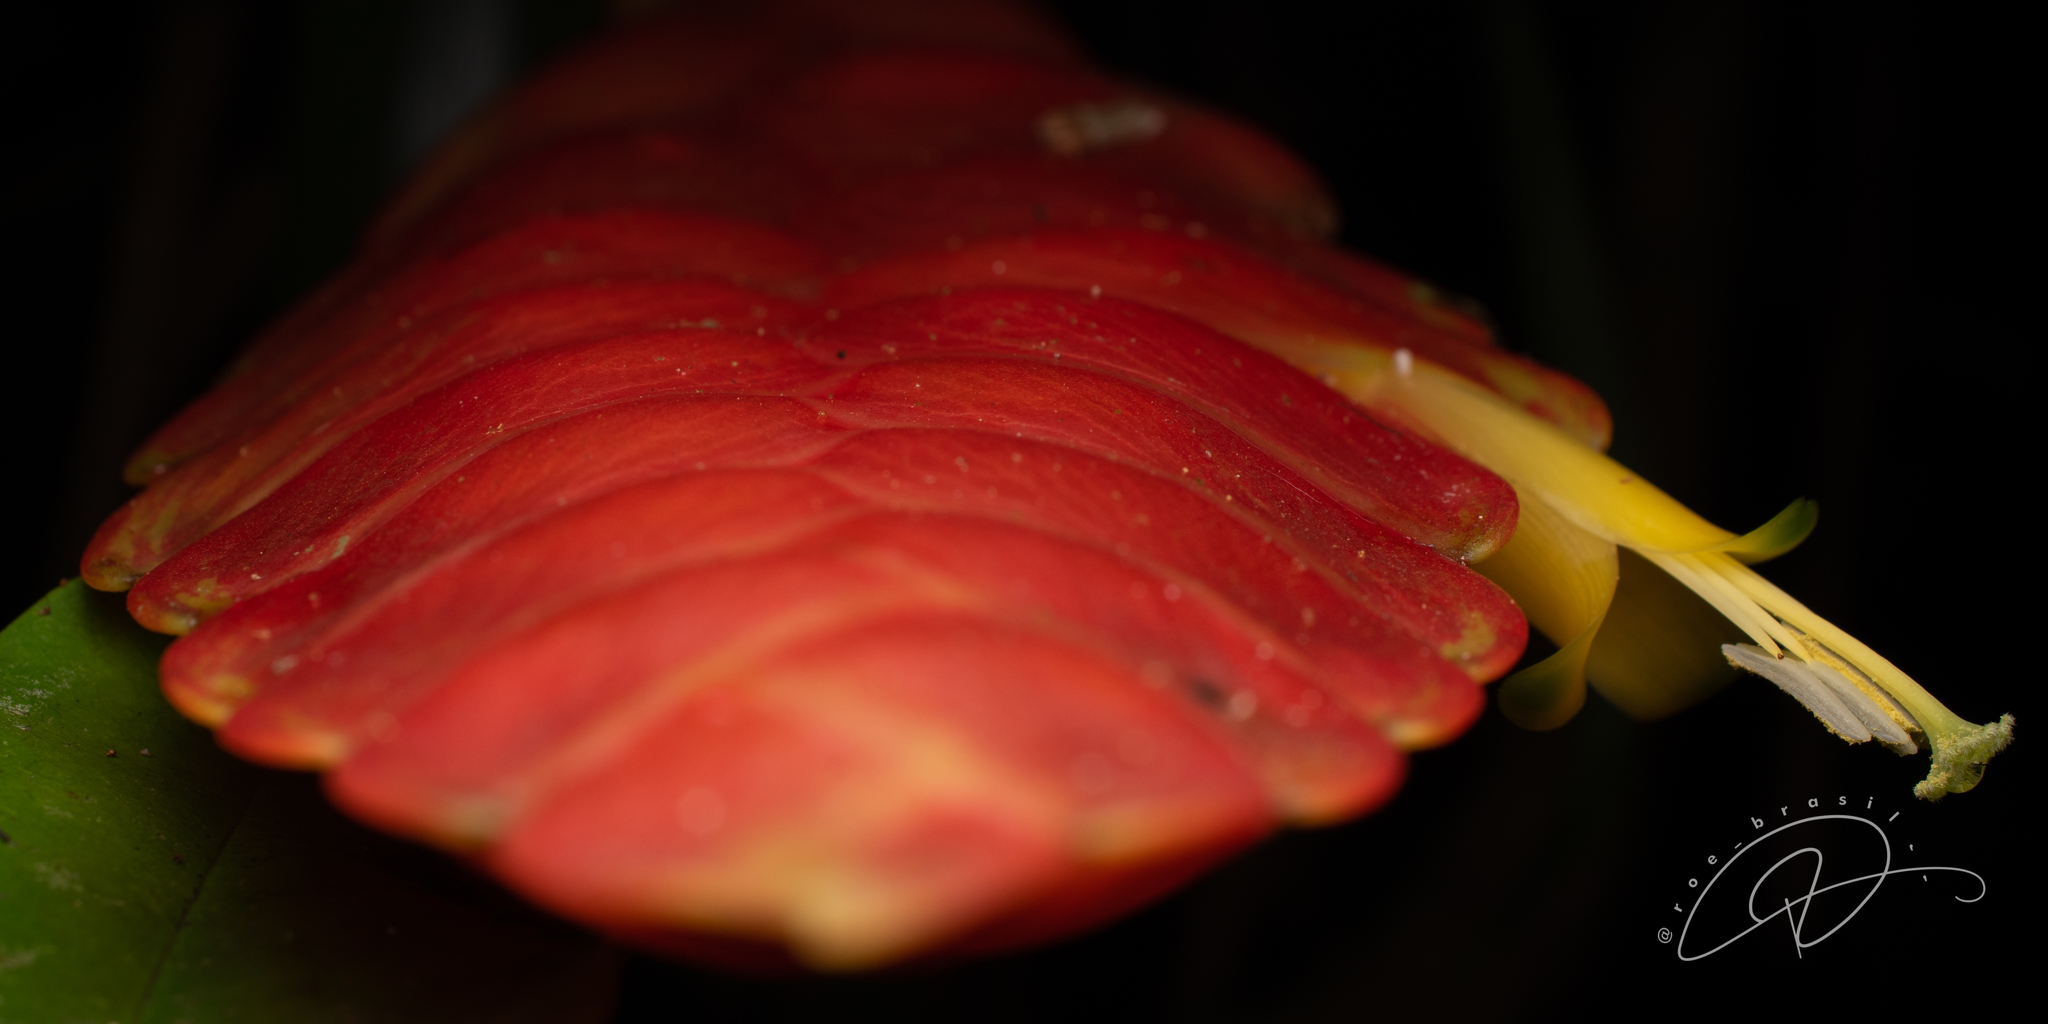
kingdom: Plantae
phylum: Tracheophyta
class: Liliopsida
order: Poales
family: Bromeliaceae
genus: Vriesea
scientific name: Vriesea inflata
